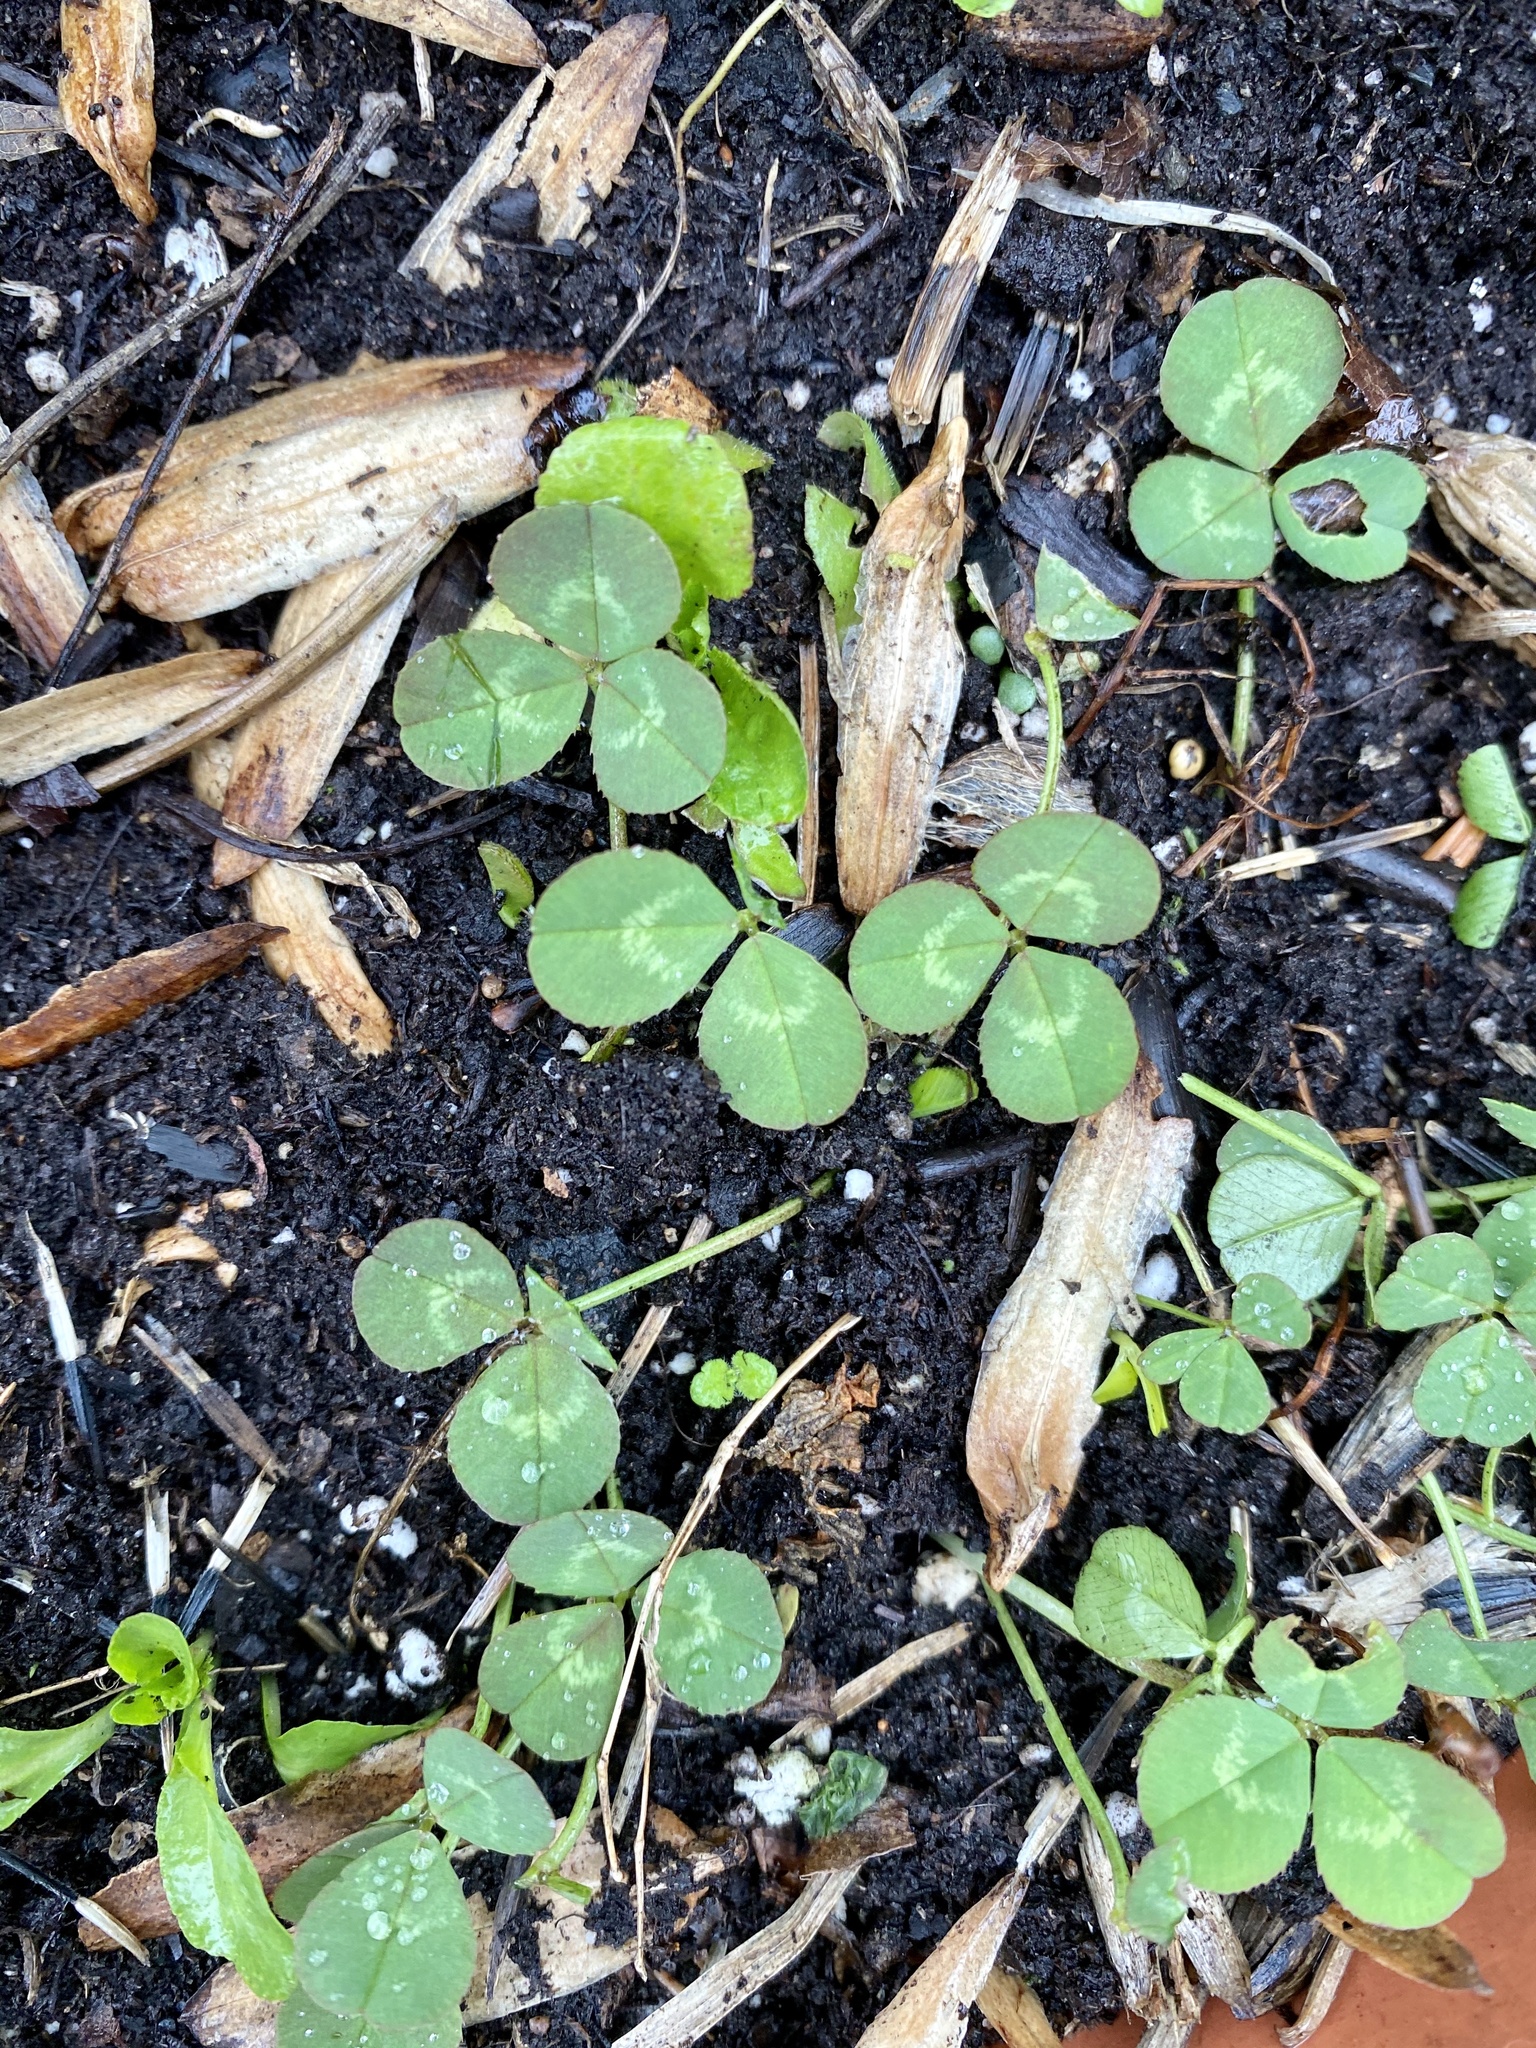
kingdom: Plantae
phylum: Tracheophyta
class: Magnoliopsida
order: Fabales
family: Fabaceae
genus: Trifolium
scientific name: Trifolium repens
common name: White clover
